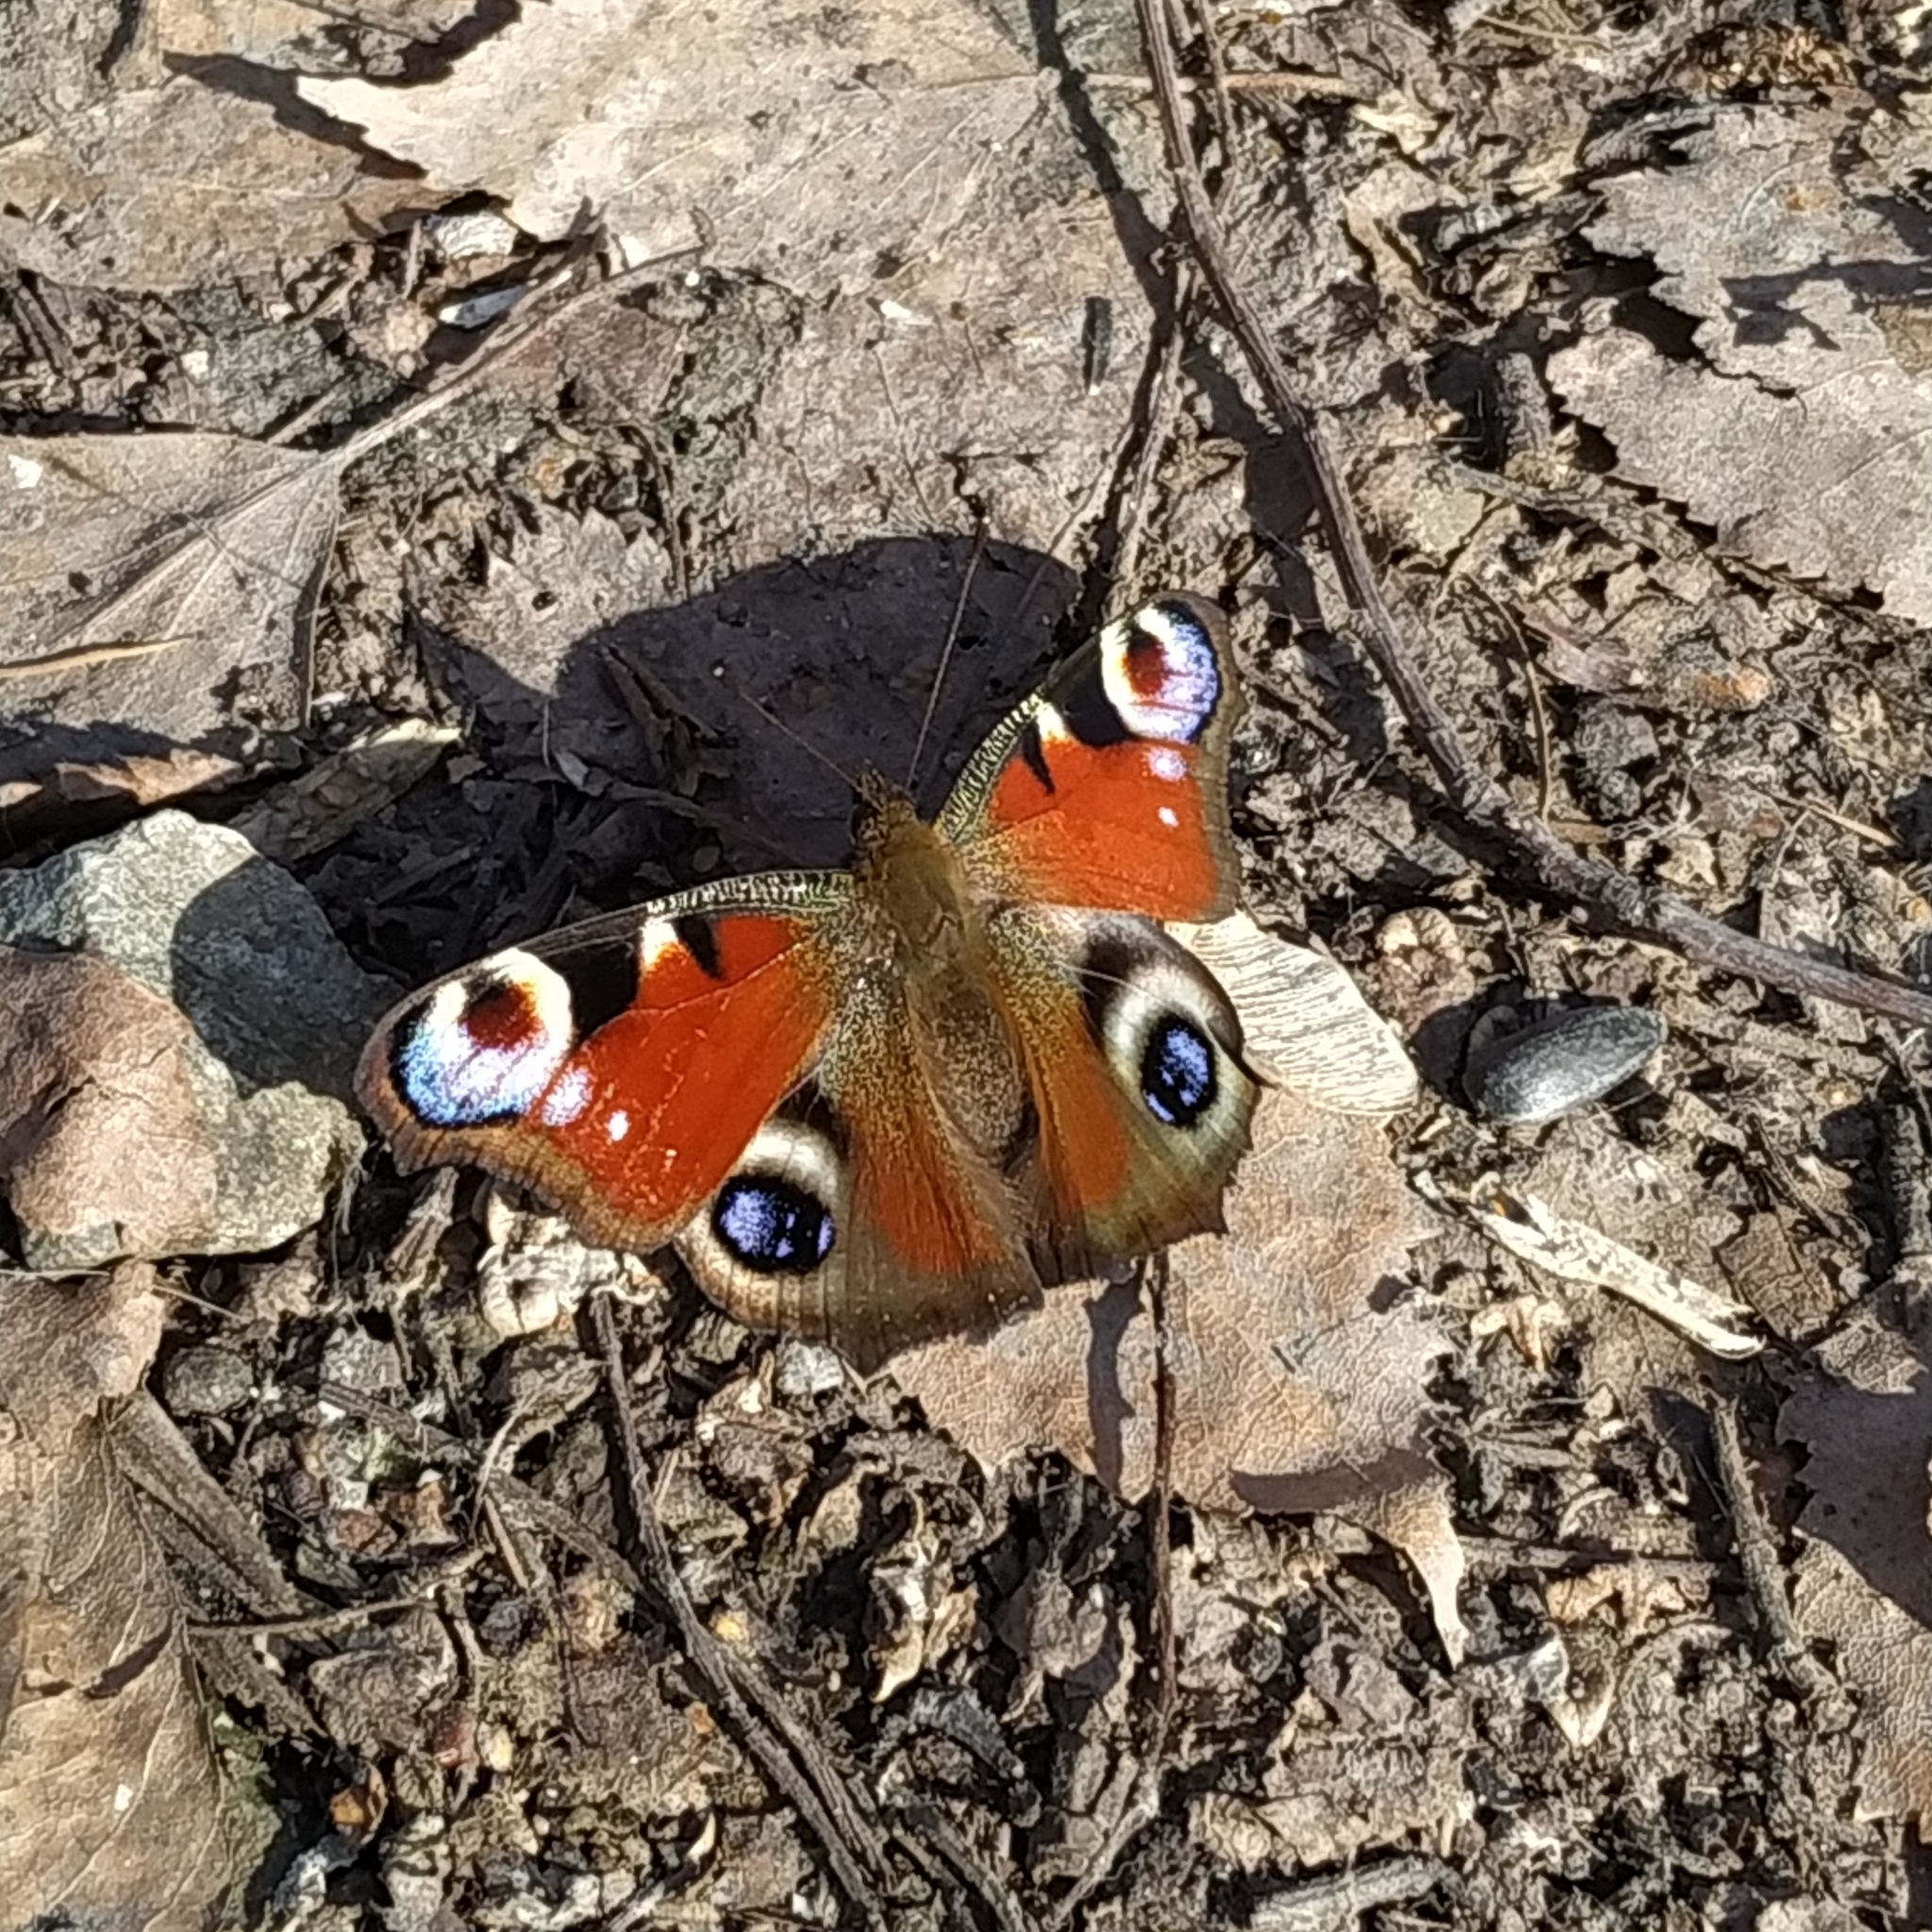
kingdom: Animalia
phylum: Arthropoda
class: Insecta
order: Lepidoptera
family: Nymphalidae
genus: Aglais
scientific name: Aglais io
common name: Peacock
